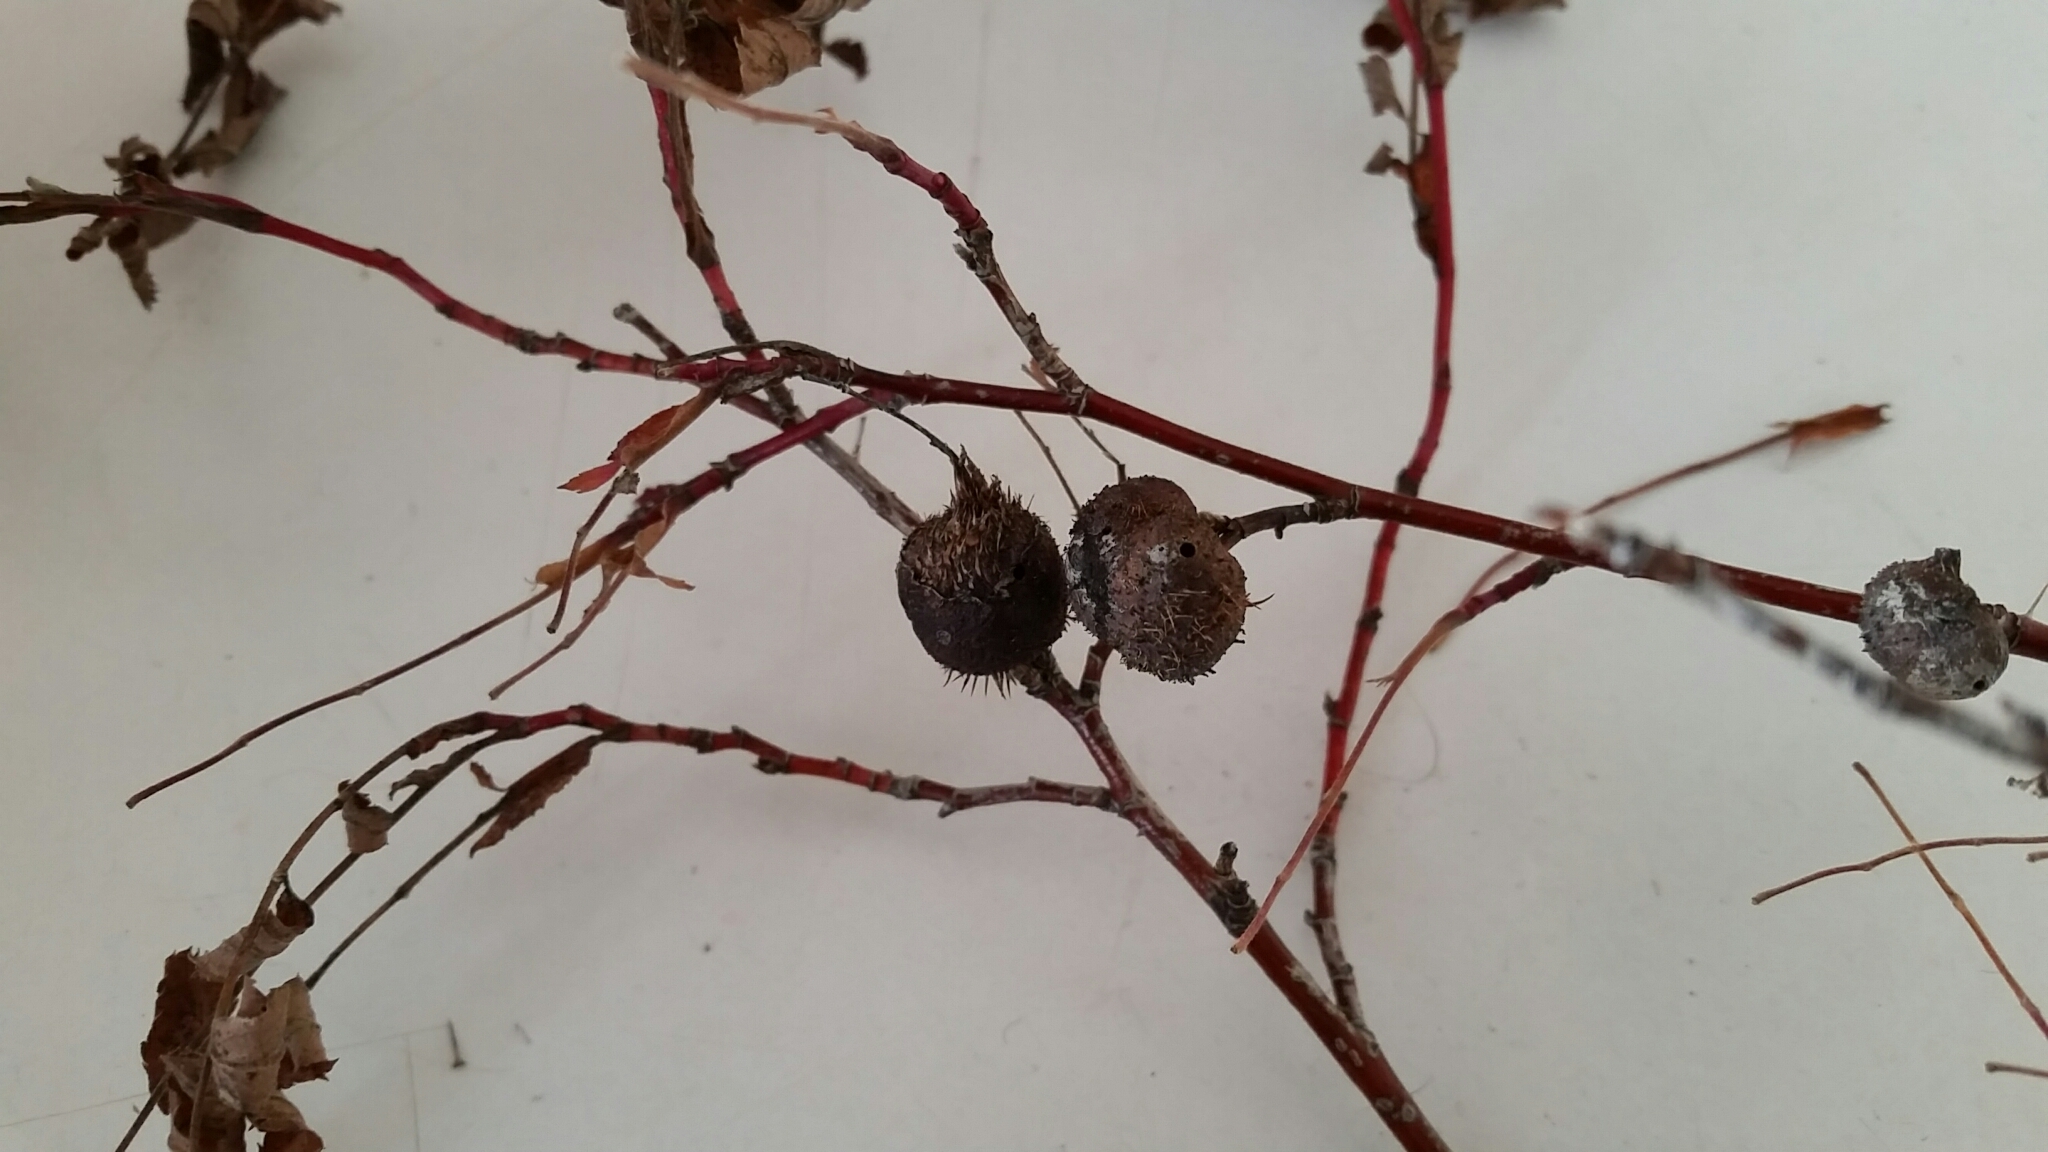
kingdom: Animalia
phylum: Arthropoda
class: Insecta
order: Hymenoptera
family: Cynipidae
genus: Diplolepis
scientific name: Diplolepis spinosa
